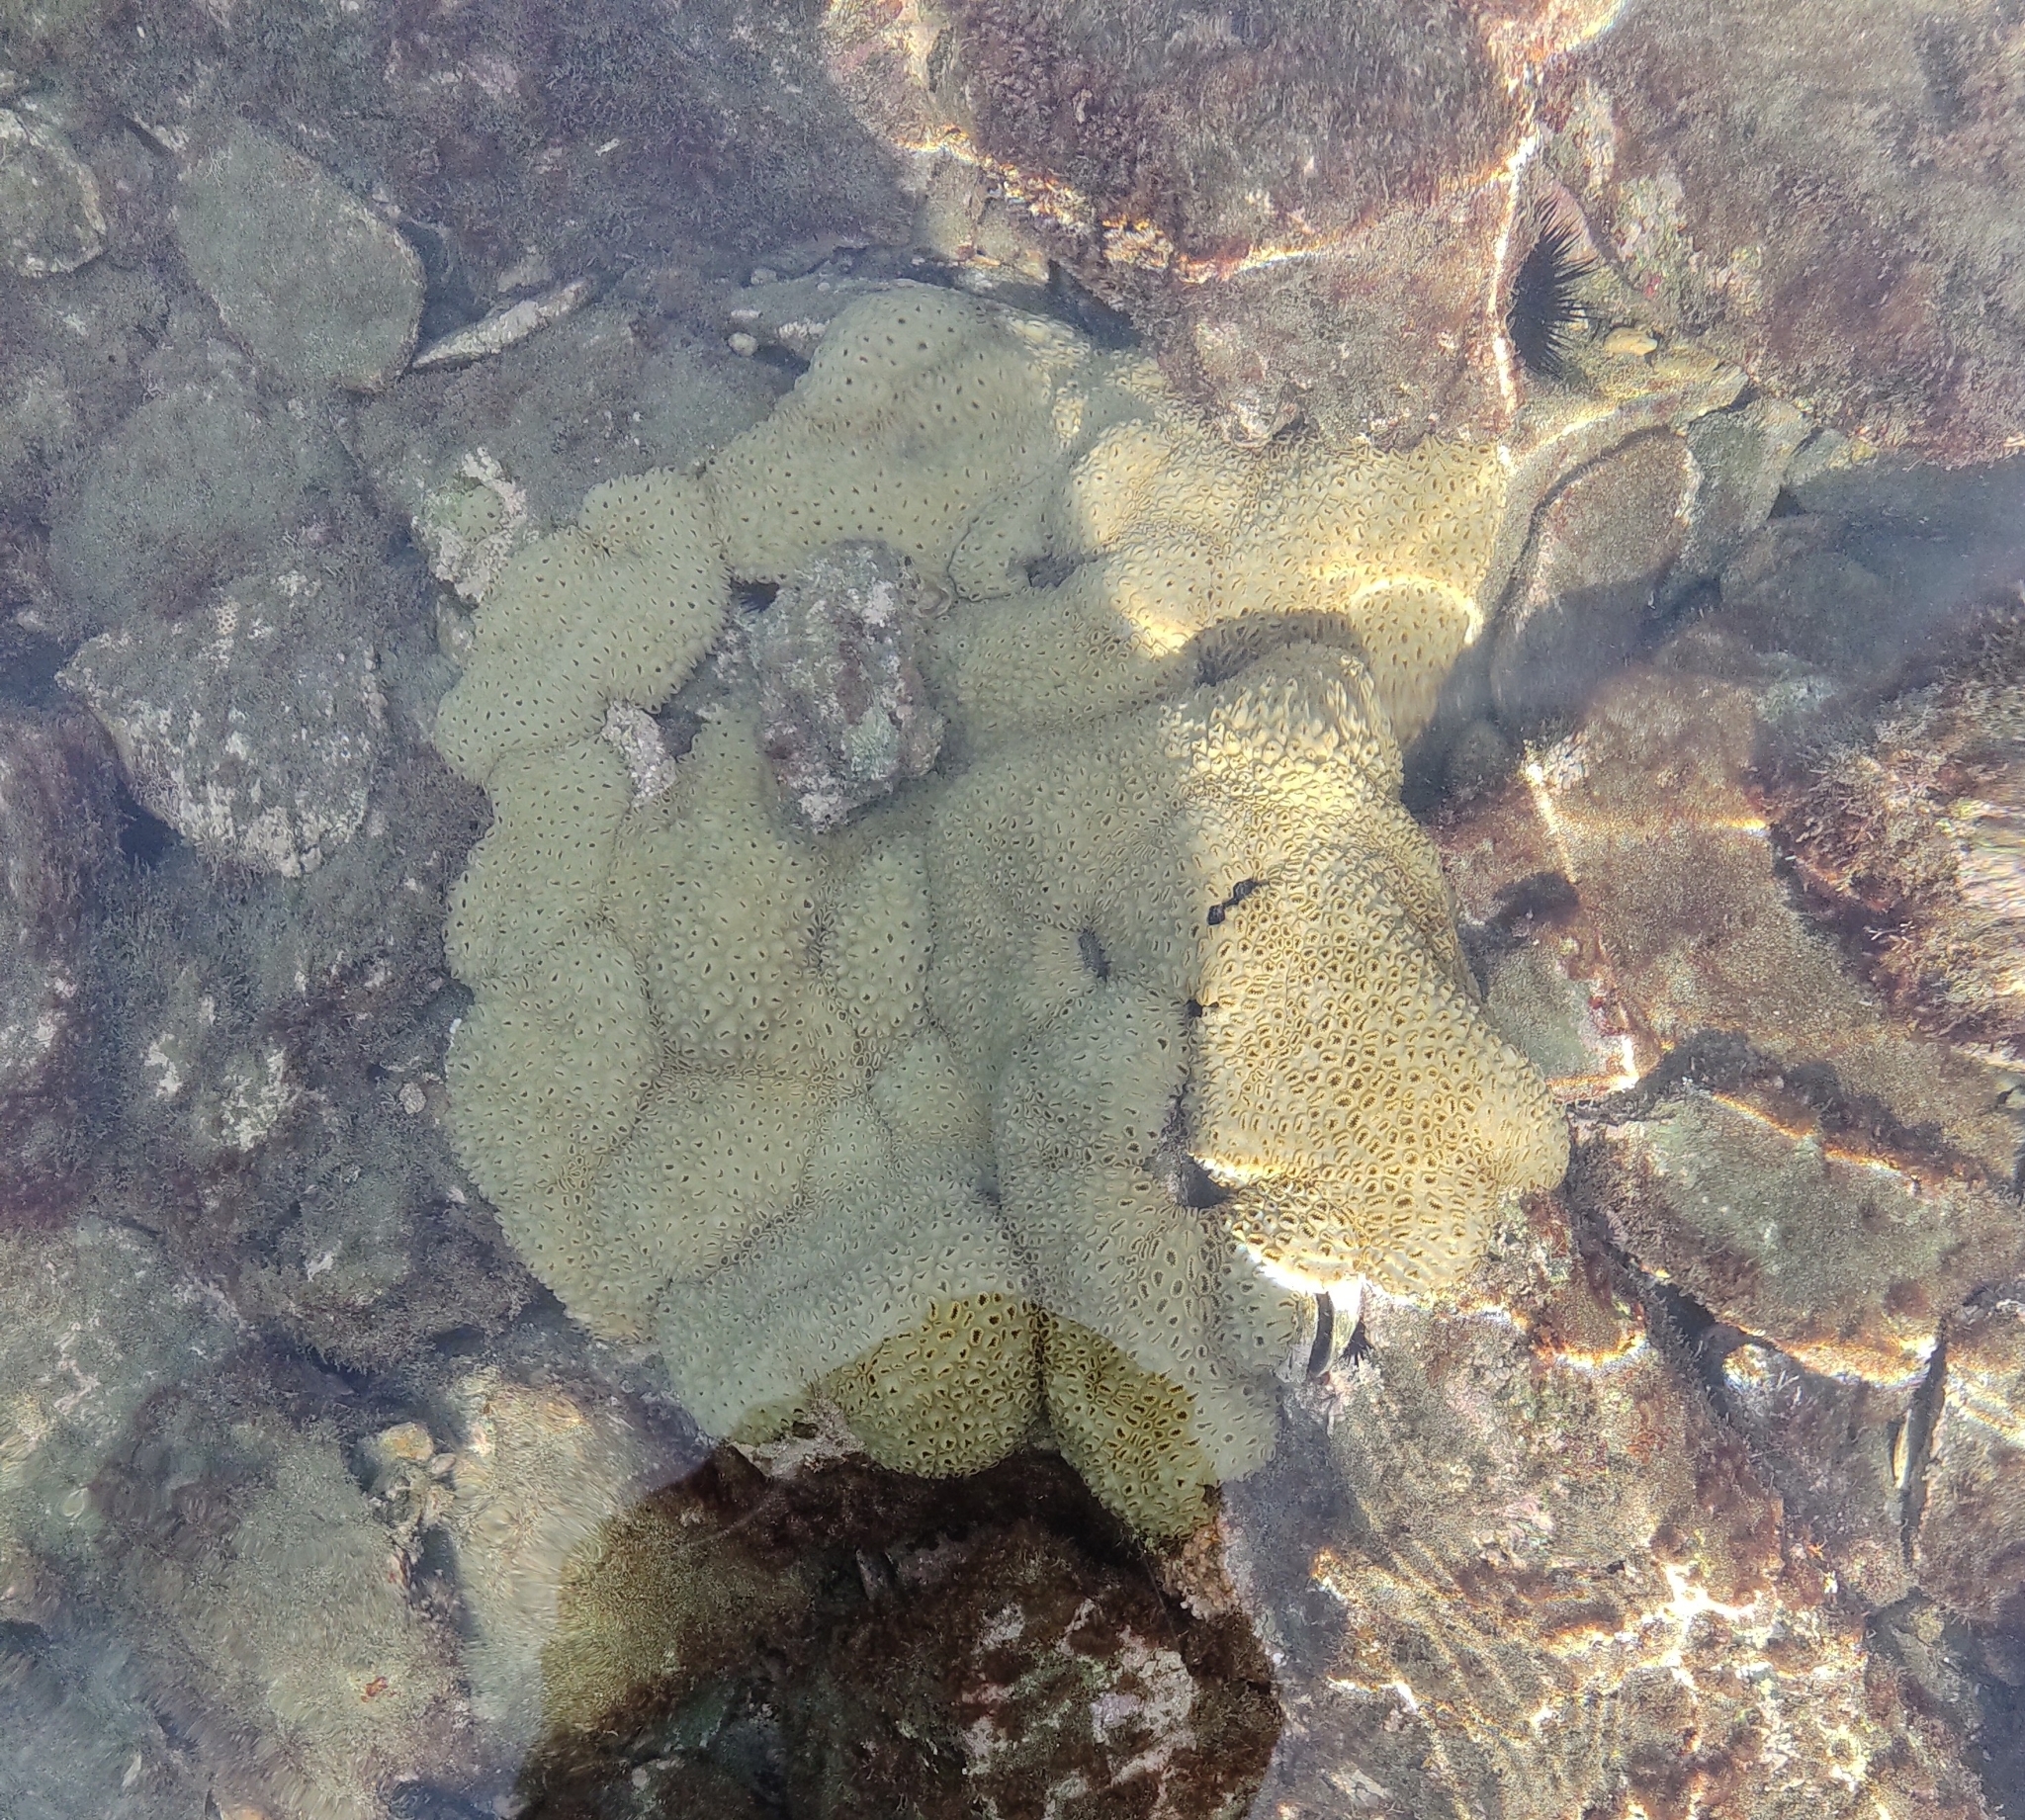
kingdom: Animalia
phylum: Cnidaria
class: Anthozoa
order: Zoantharia
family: Sphenopidae
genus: Palythoa
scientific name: Palythoa caribaeorum
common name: Encrusting colonial anemone
